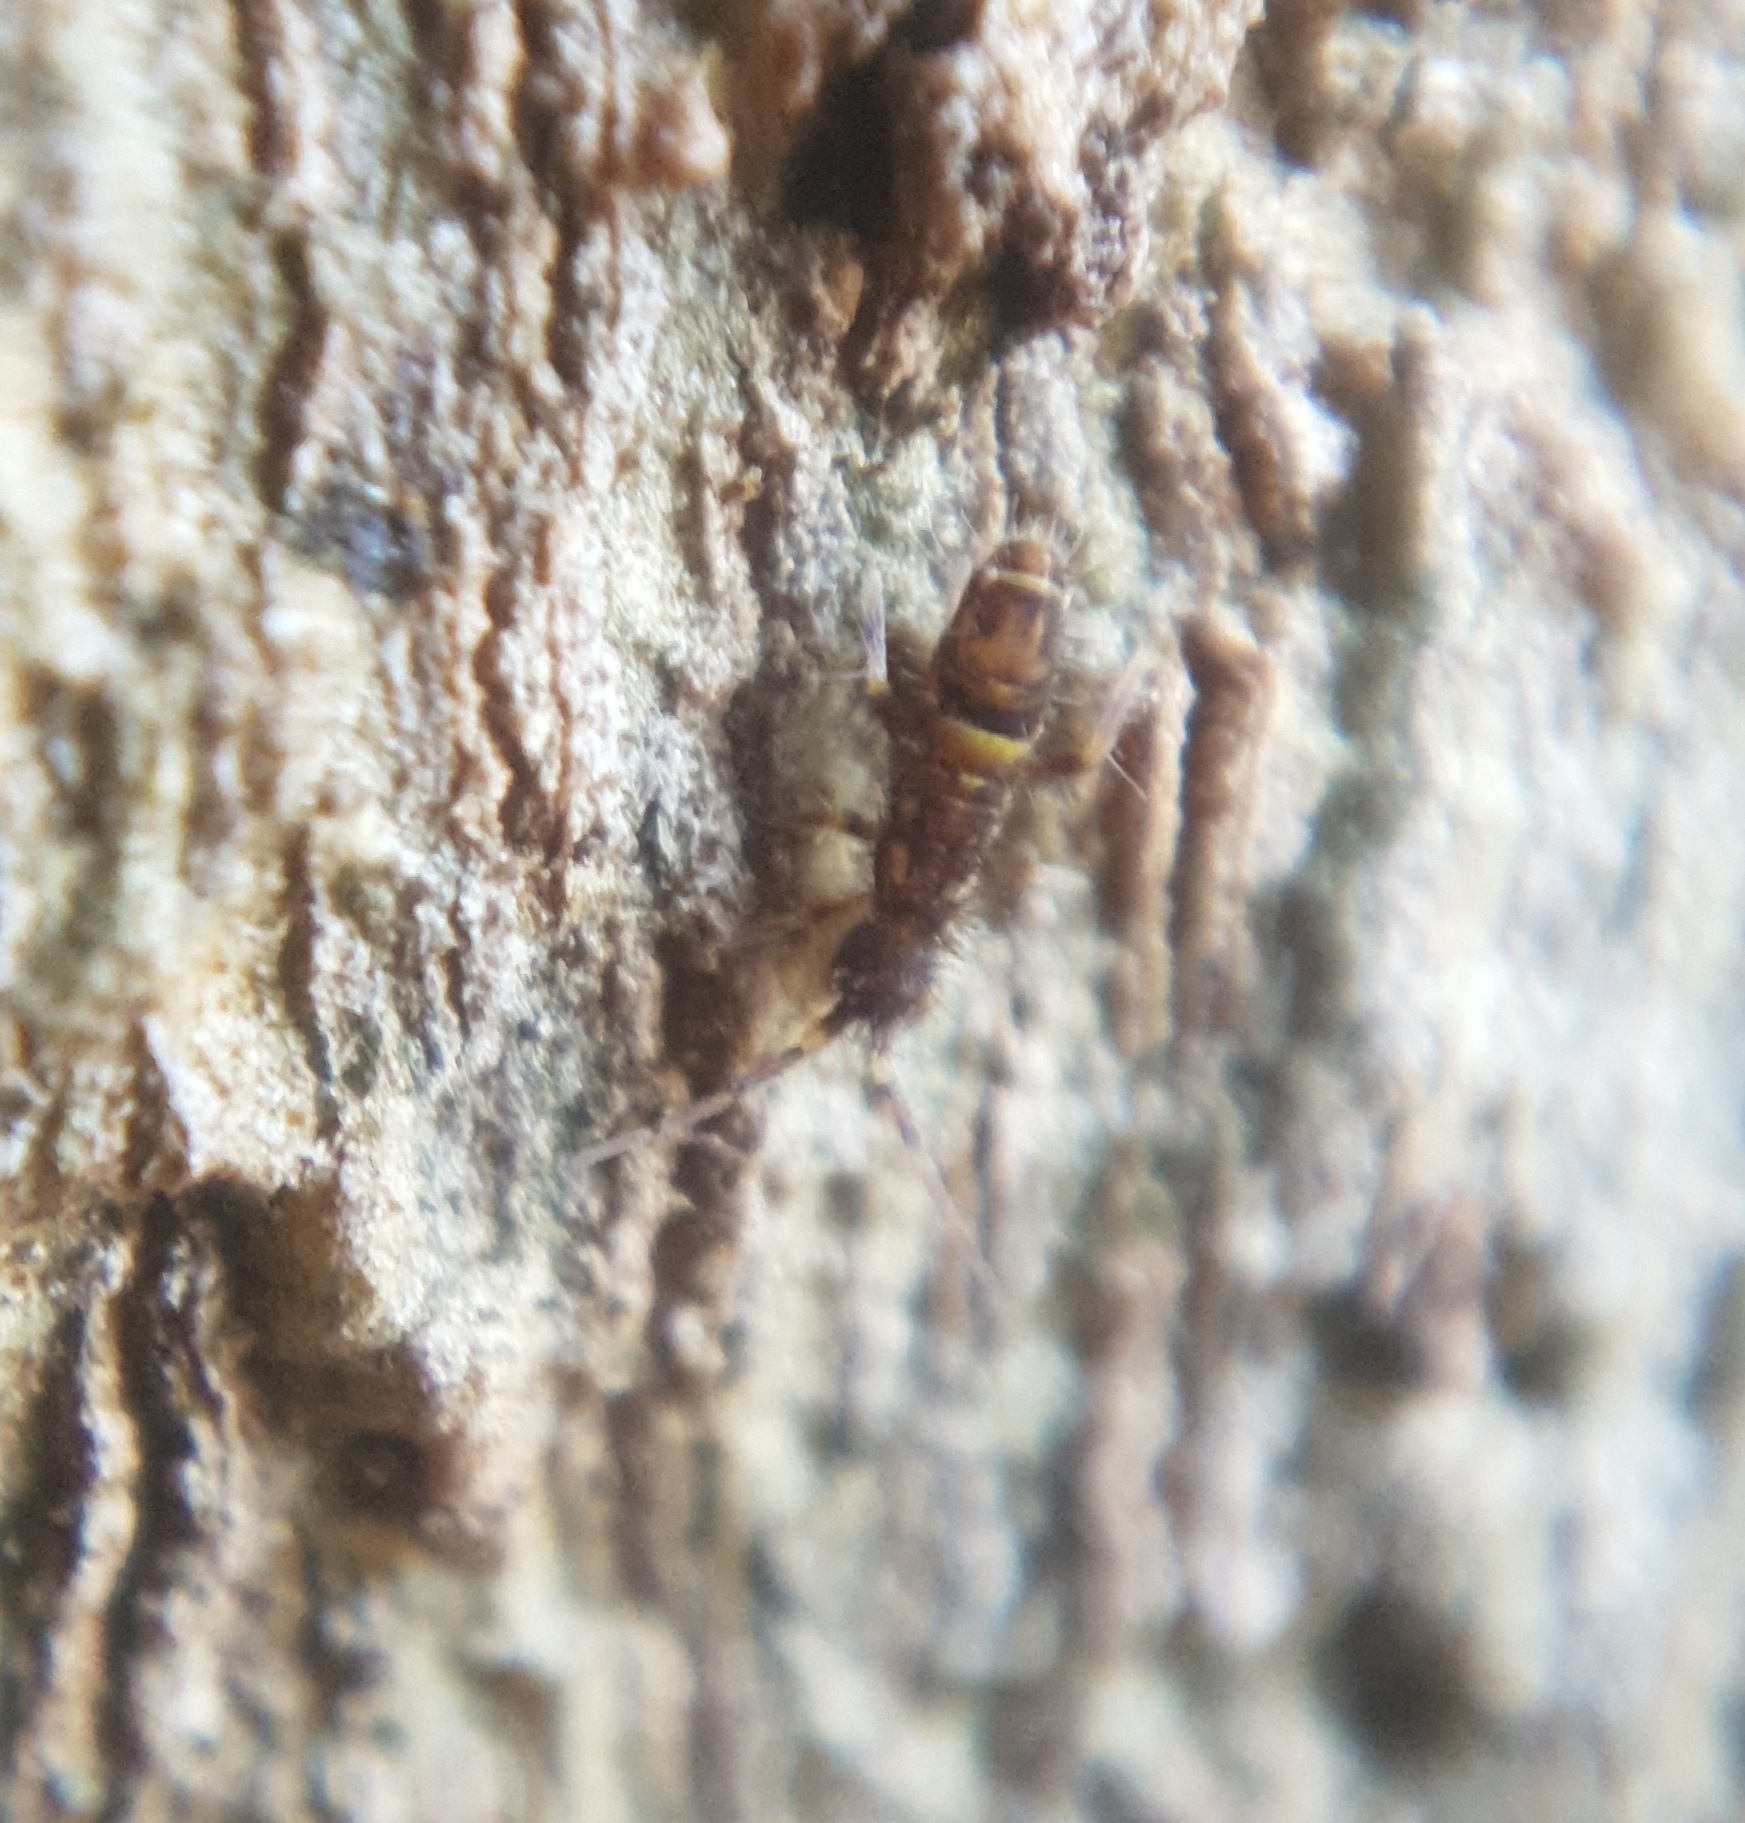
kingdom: Animalia
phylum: Arthropoda
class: Collembola
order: Entomobryomorpha
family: Orchesellidae
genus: Orchesella
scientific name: Orchesella cincta
